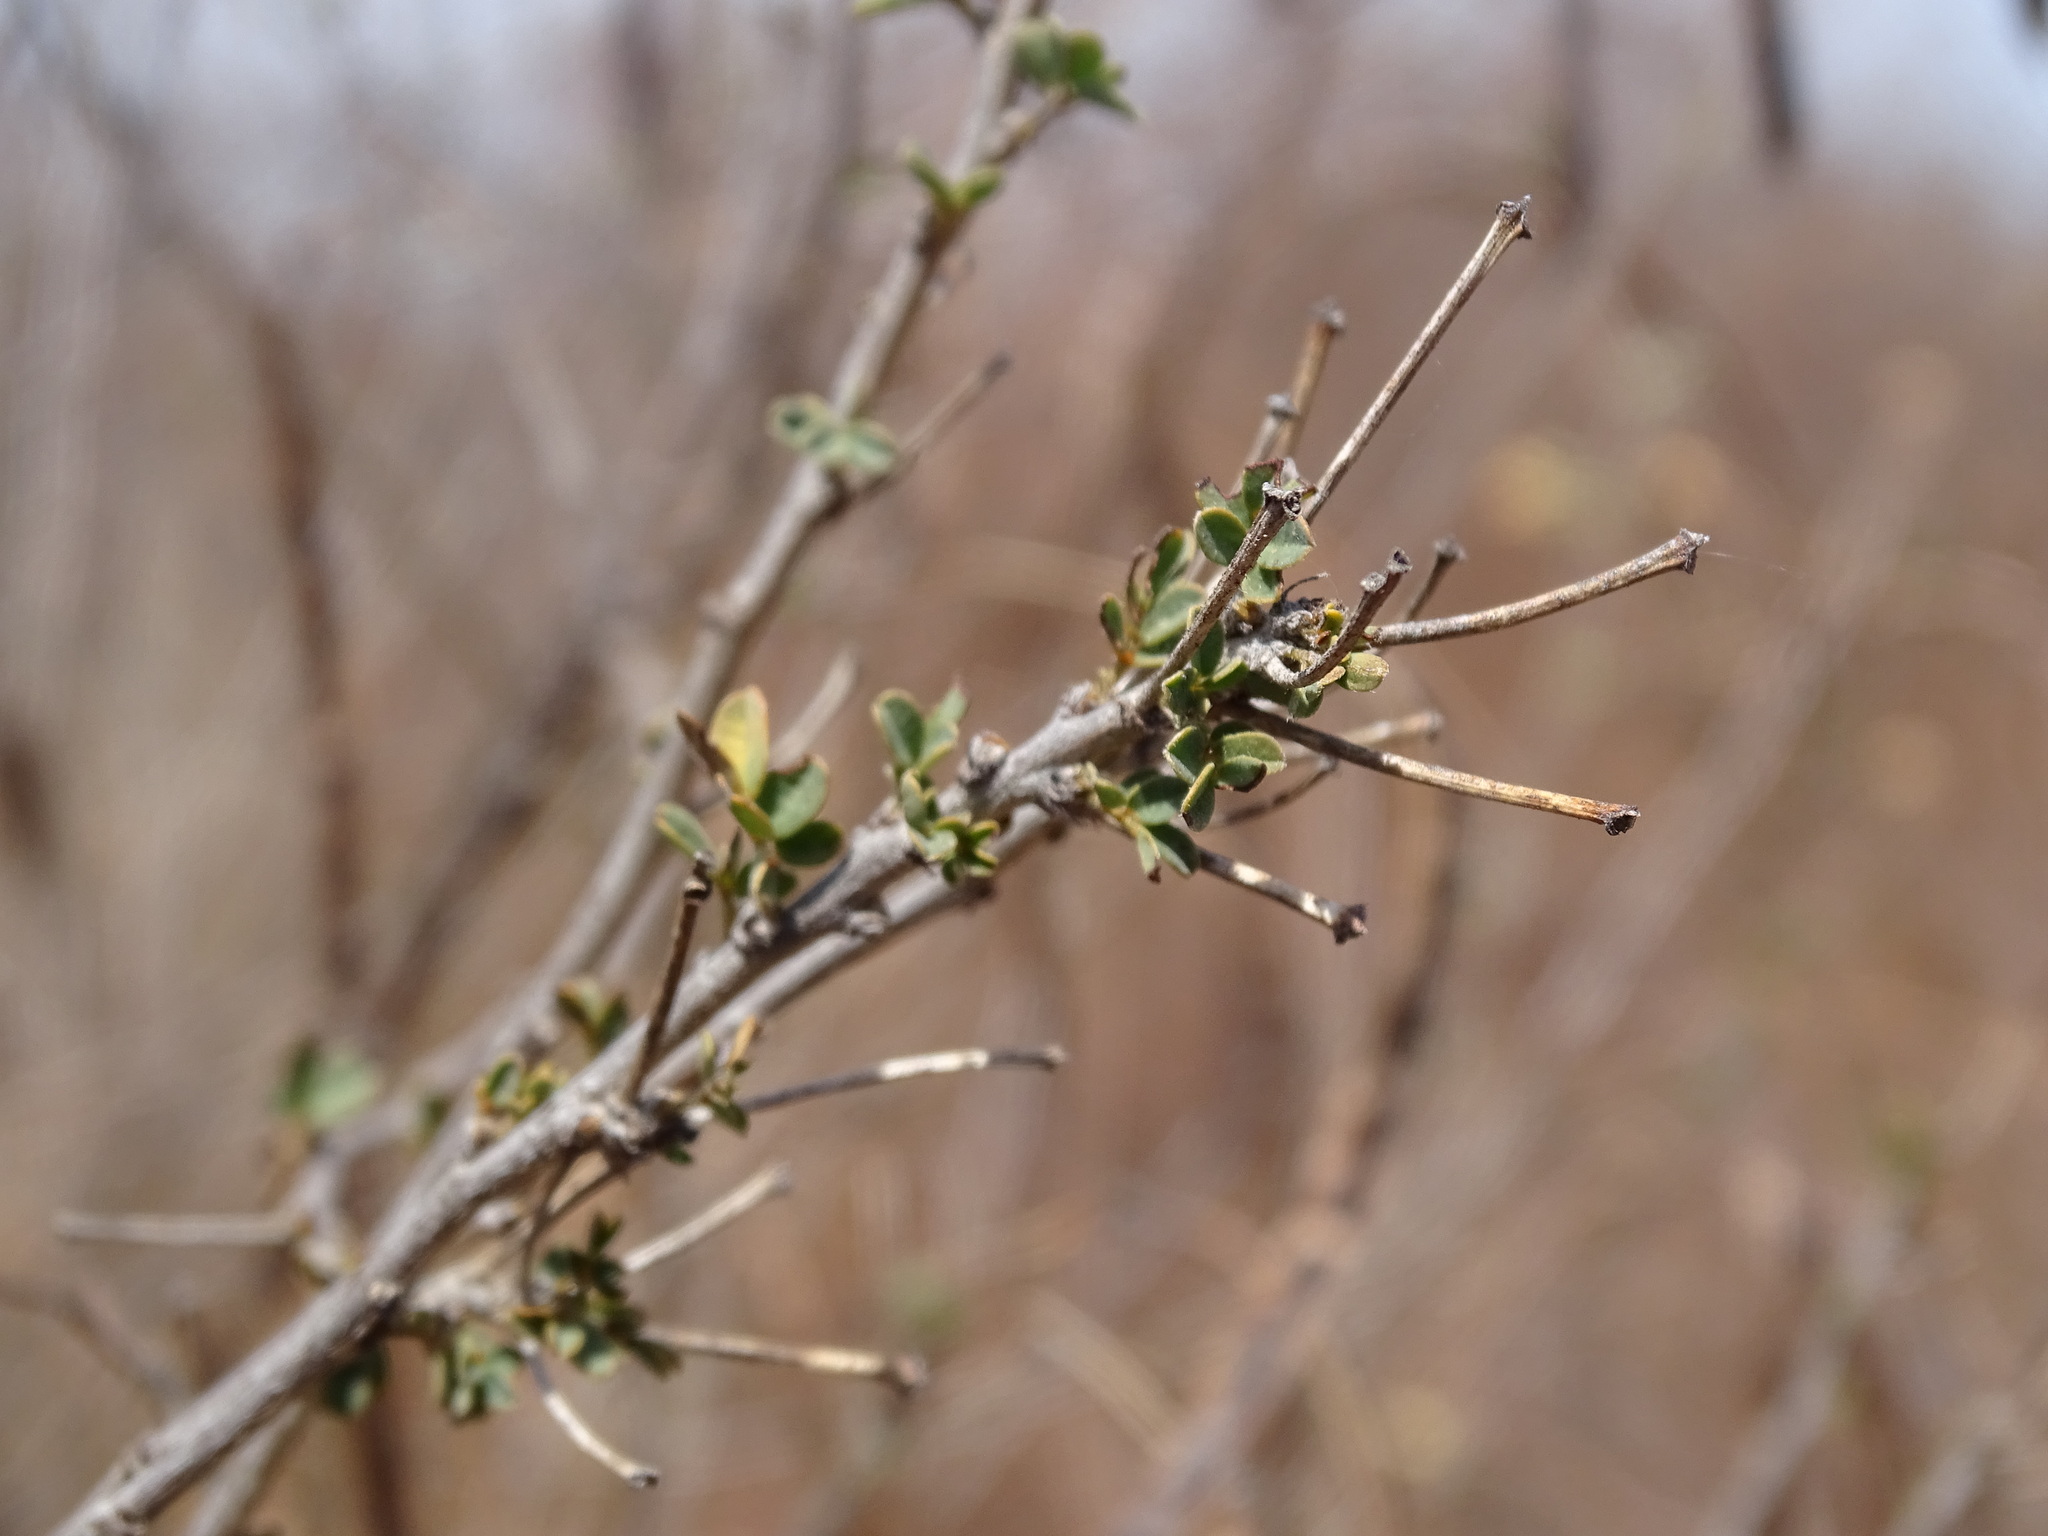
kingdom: Plantae
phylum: Tracheophyta
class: Magnoliopsida
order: Fabales
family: Fabaceae
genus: Senna
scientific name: Senna pallida
